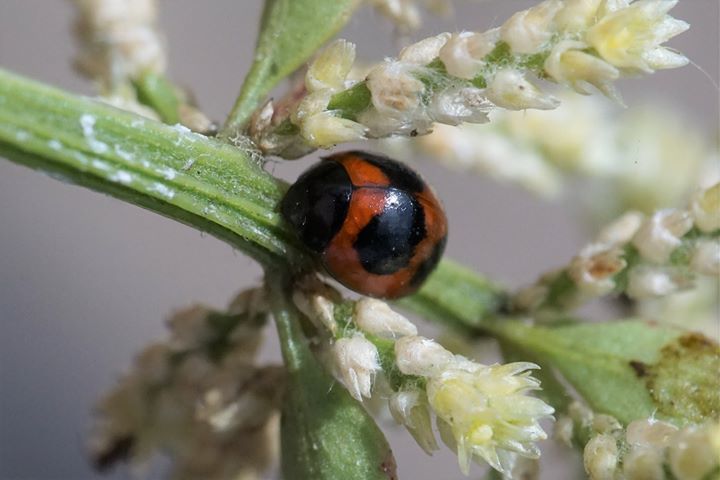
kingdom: Animalia
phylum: Arthropoda
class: Insecta
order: Coleoptera
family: Coccinellidae
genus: Exochomus
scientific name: Exochomus childreni
